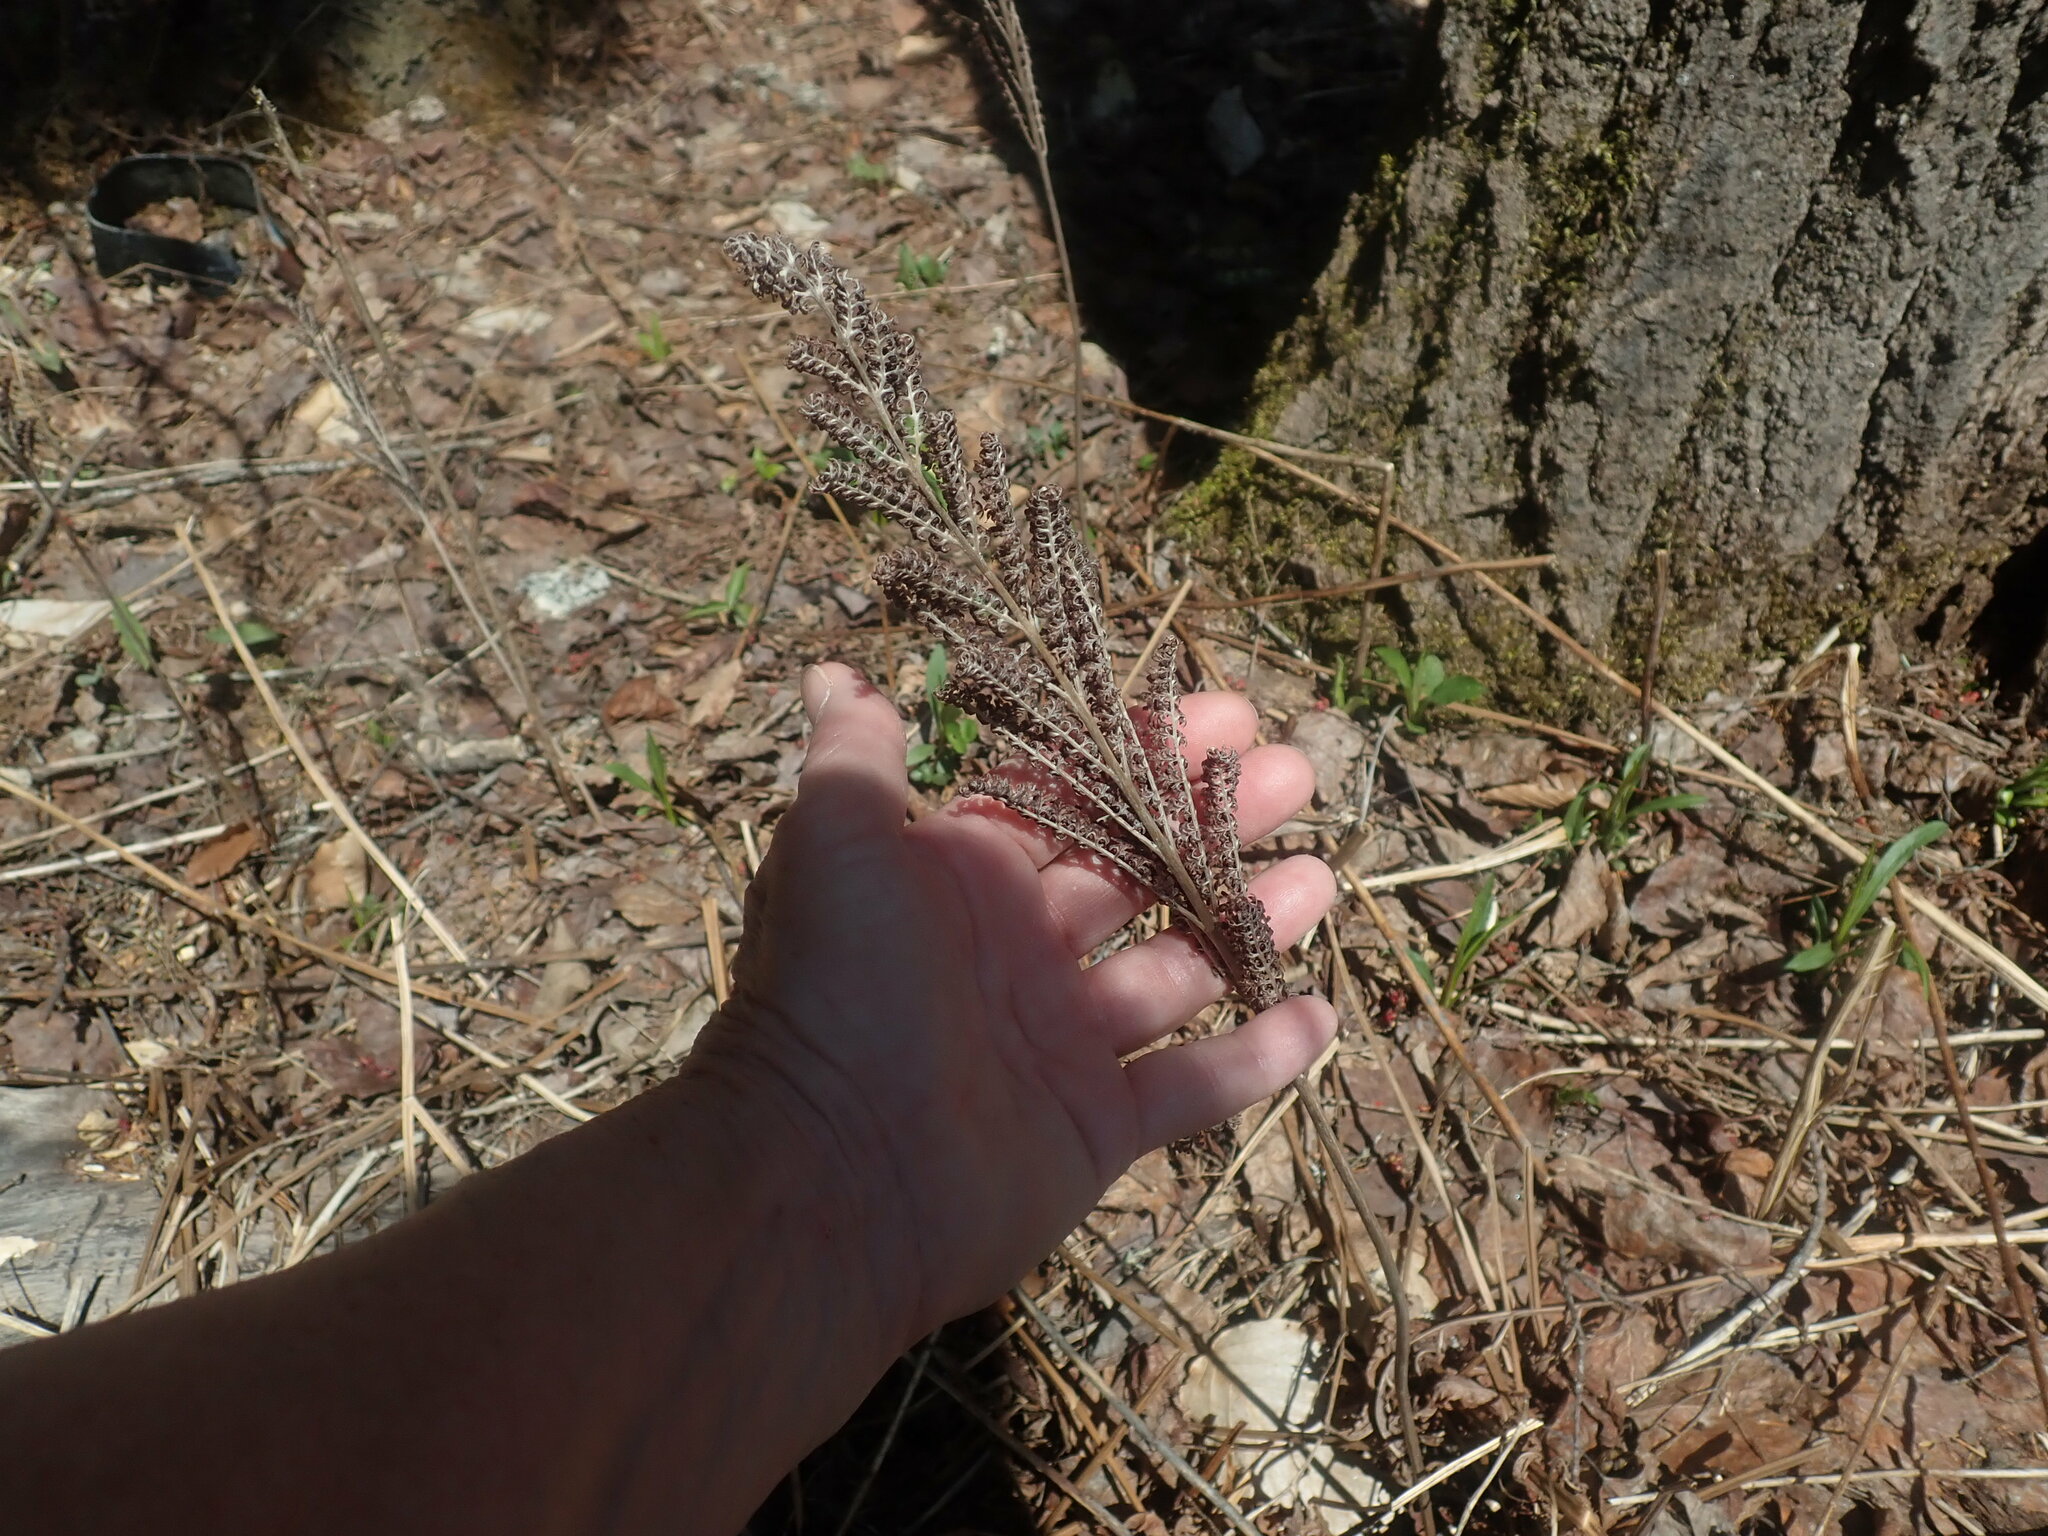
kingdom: Plantae
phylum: Tracheophyta
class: Polypodiopsida
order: Polypodiales
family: Onocleaceae
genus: Onoclea
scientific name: Onoclea sensibilis
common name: Sensitive fern
